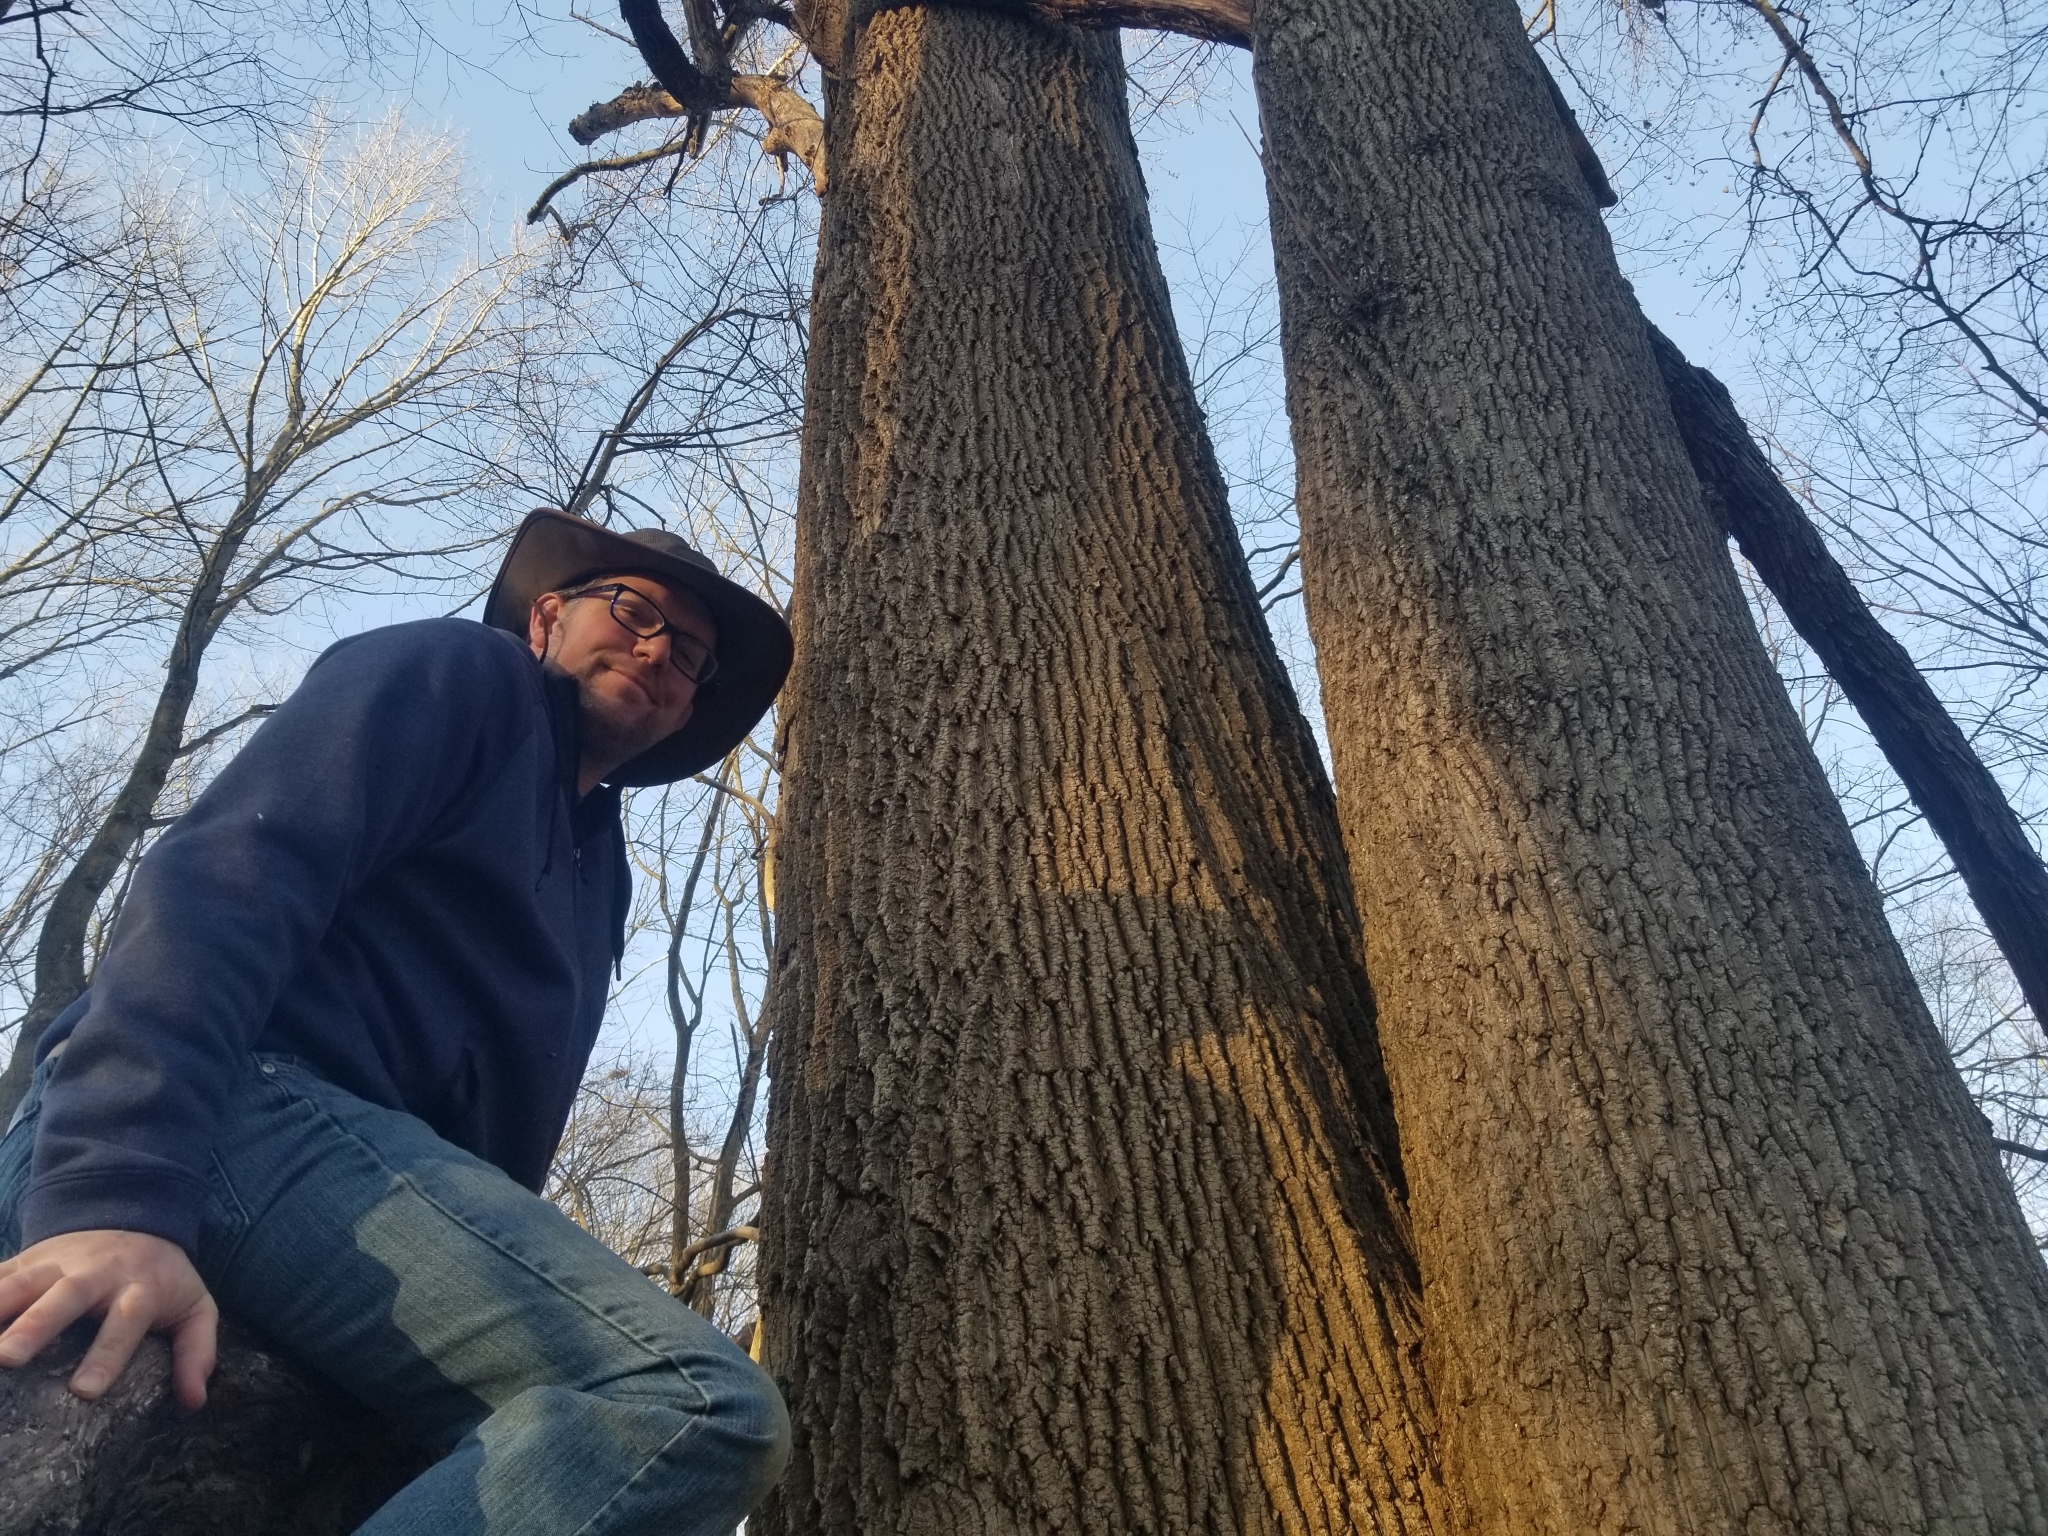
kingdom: Plantae
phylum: Tracheophyta
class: Magnoliopsida
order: Magnoliales
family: Magnoliaceae
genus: Liriodendron
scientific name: Liriodendron tulipifera
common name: Tulip tree
